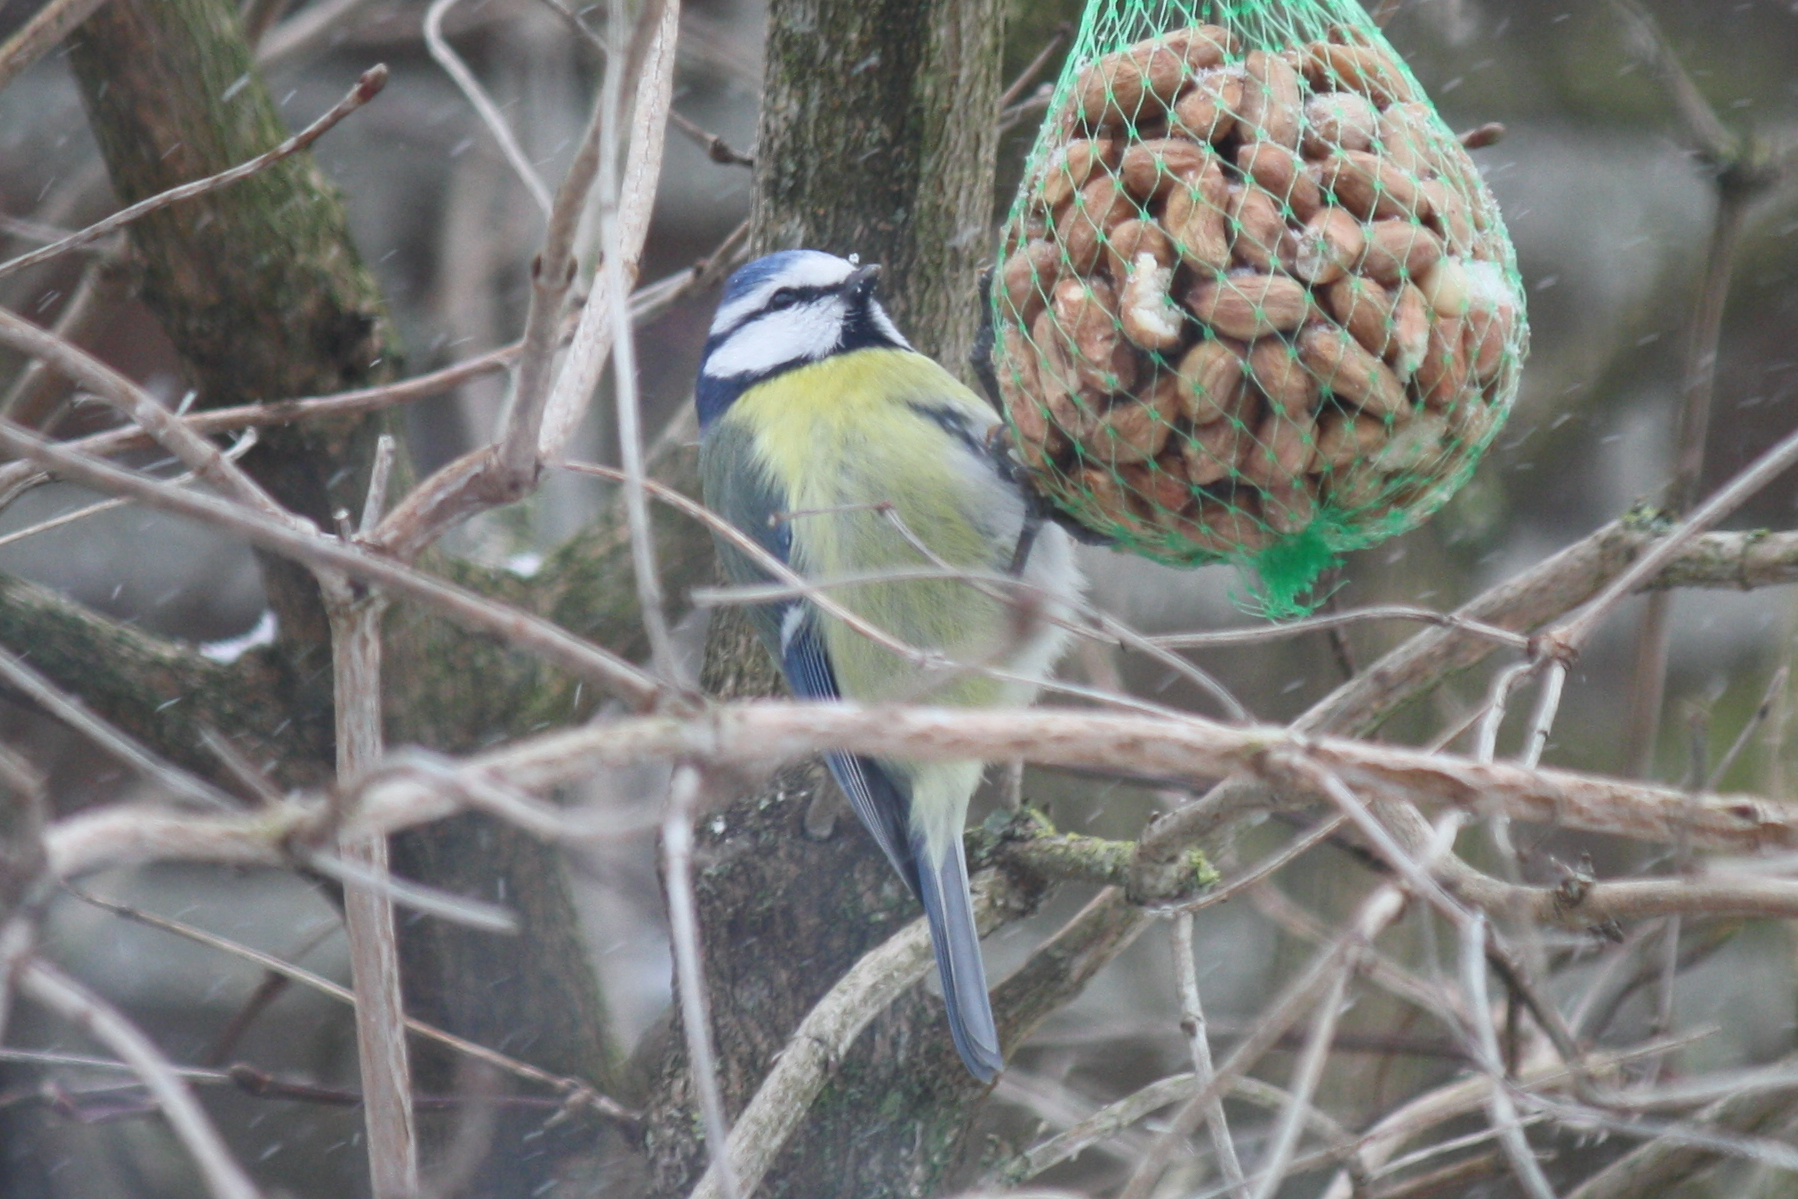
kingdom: Animalia
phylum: Chordata
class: Aves
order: Passeriformes
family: Paridae
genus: Cyanistes
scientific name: Cyanistes caeruleus
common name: Eurasian blue tit
